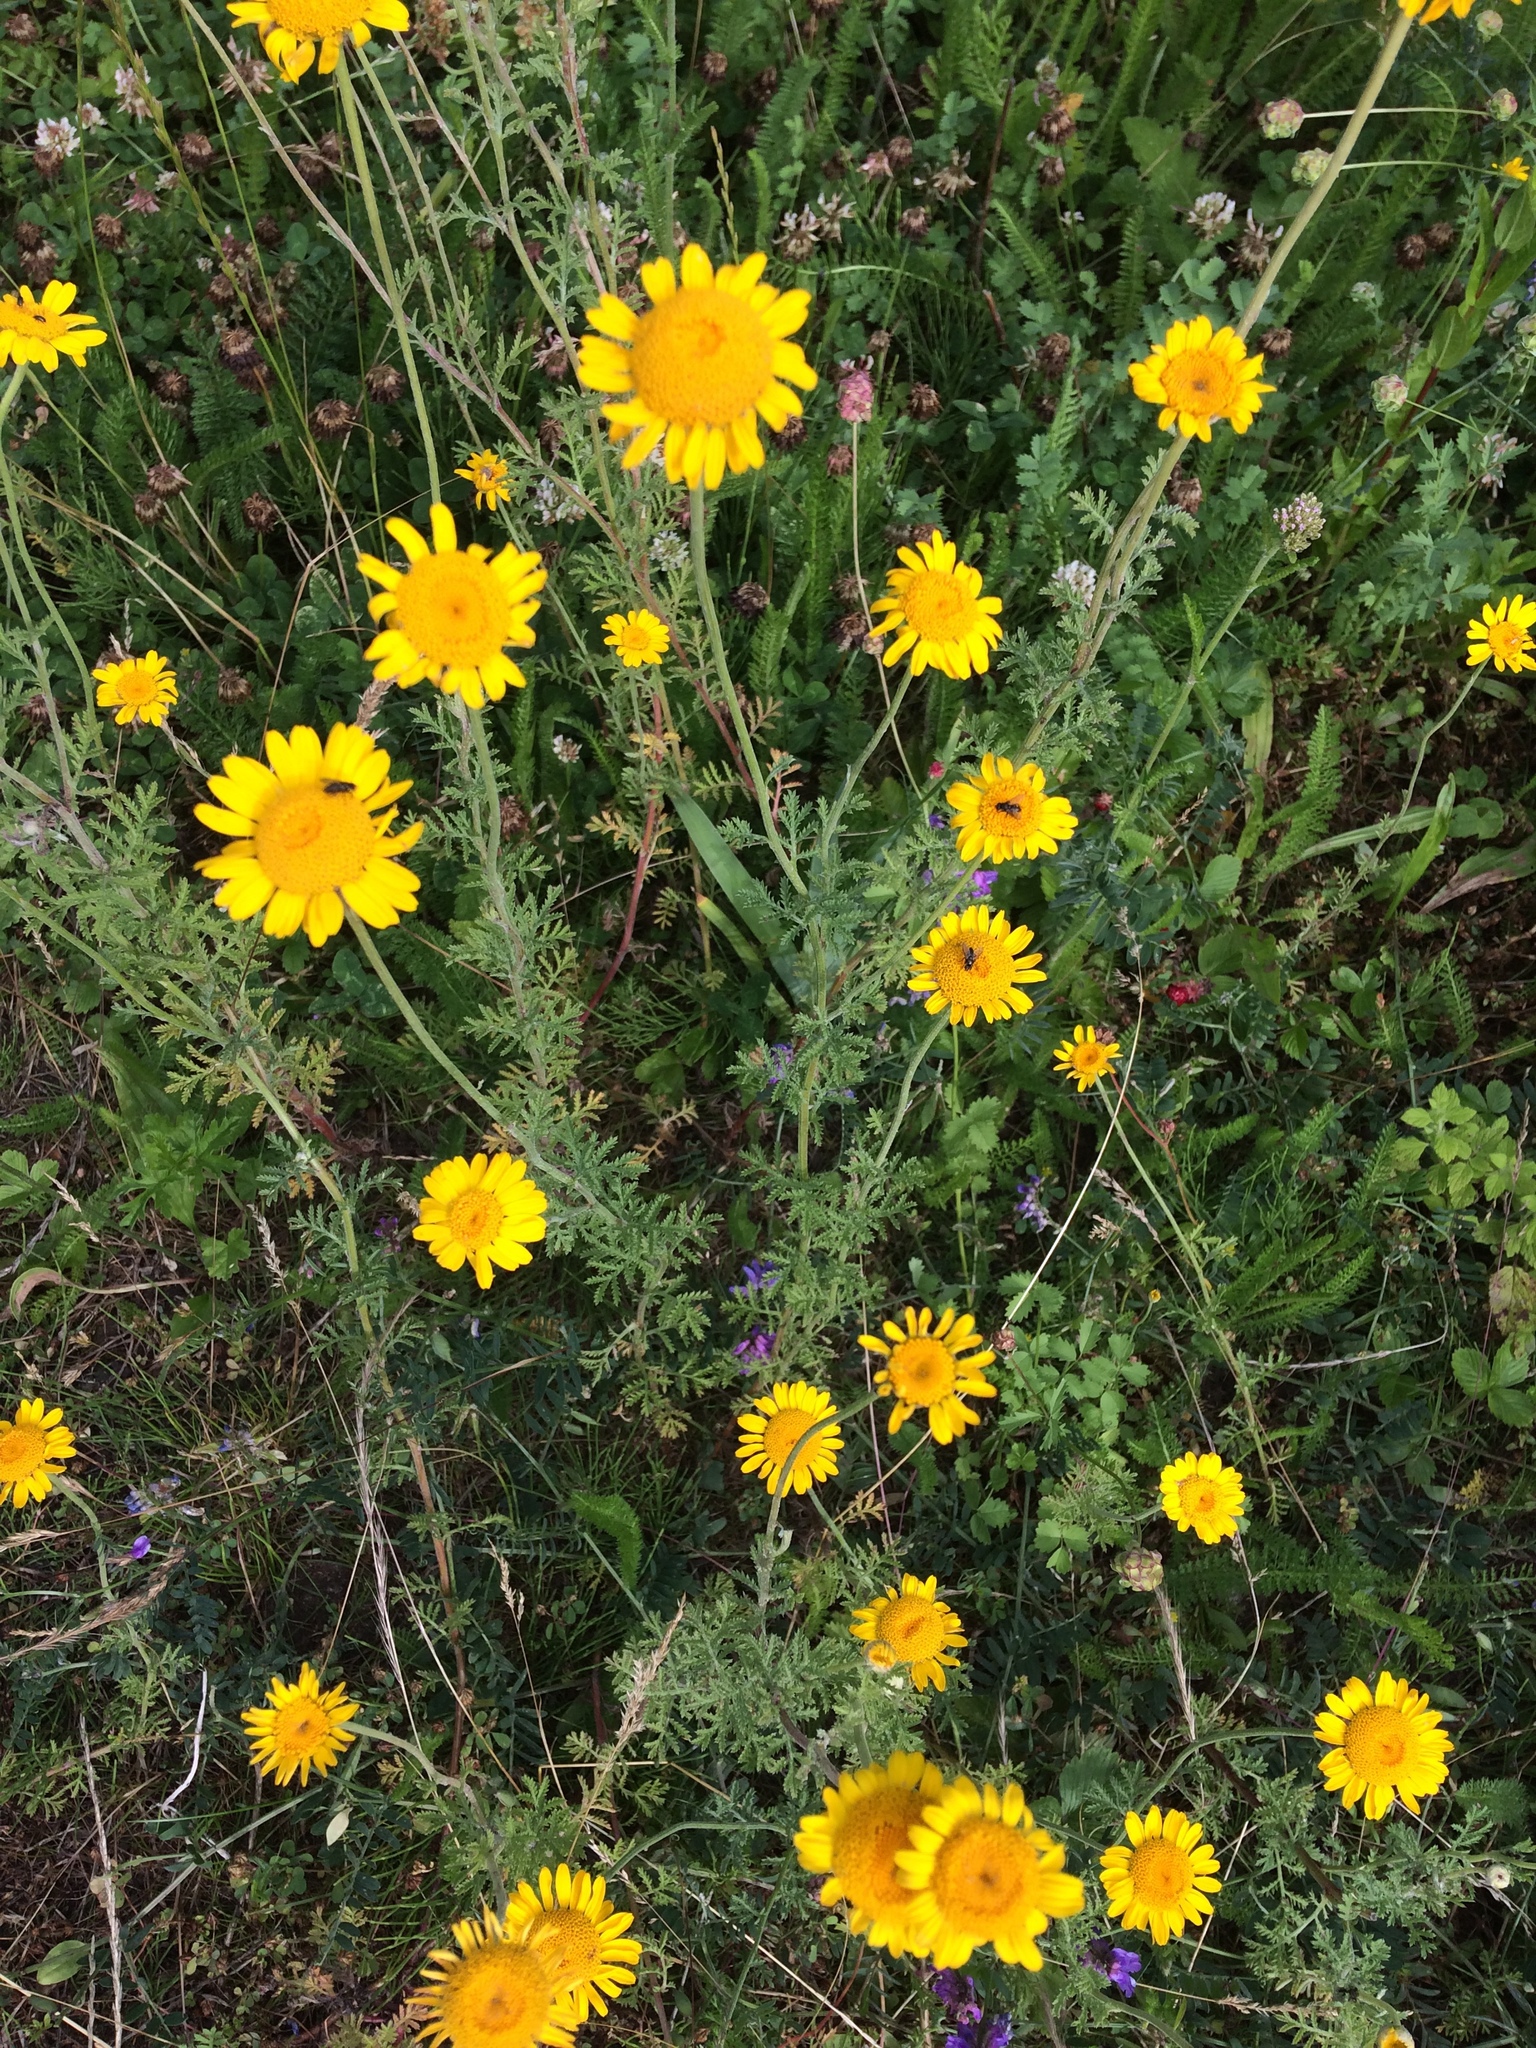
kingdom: Plantae
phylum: Tracheophyta
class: Magnoliopsida
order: Asterales
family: Asteraceae
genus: Cota
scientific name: Cota tinctoria
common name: Golden chamomile
